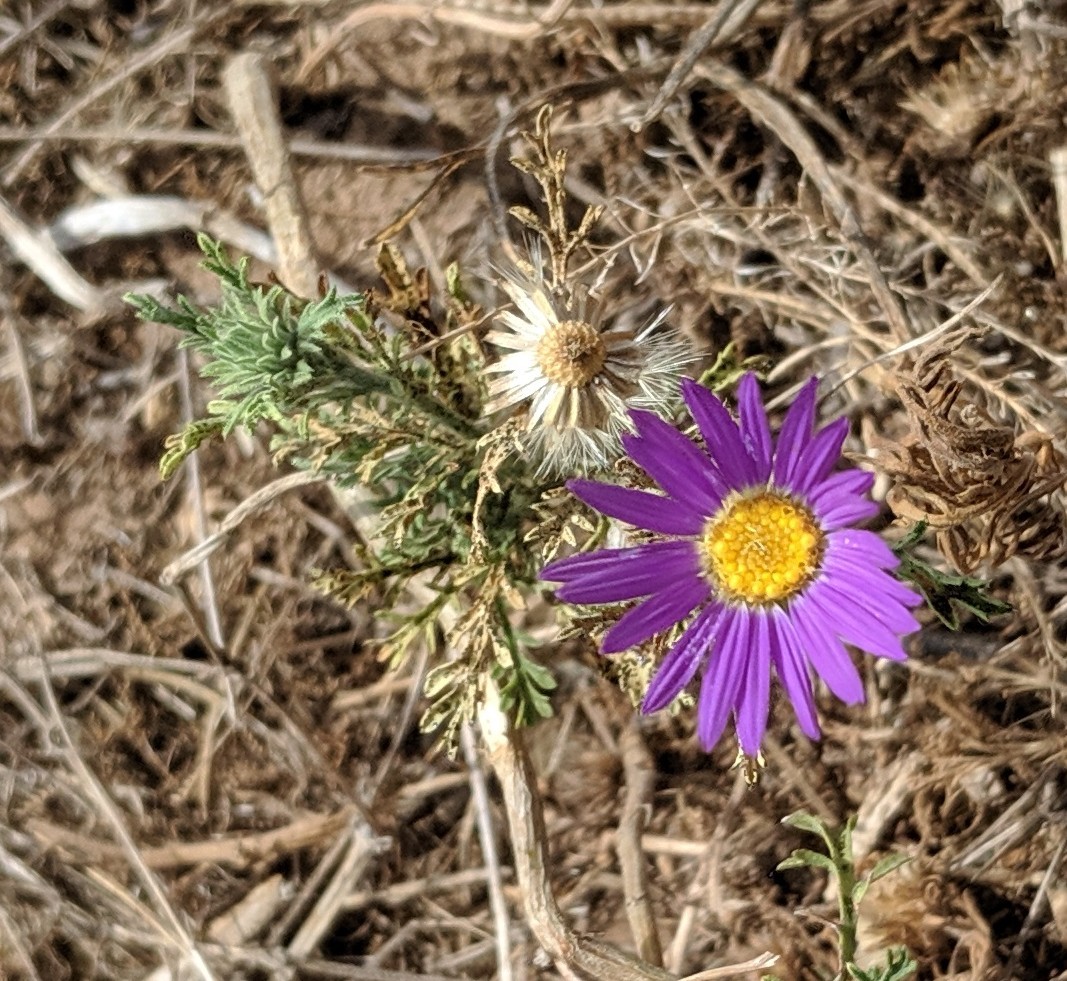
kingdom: Plantae
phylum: Tracheophyta
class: Magnoliopsida
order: Asterales
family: Asteraceae
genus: Machaeranthera
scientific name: Machaeranthera tanacetifolia
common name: Tansy-aster
